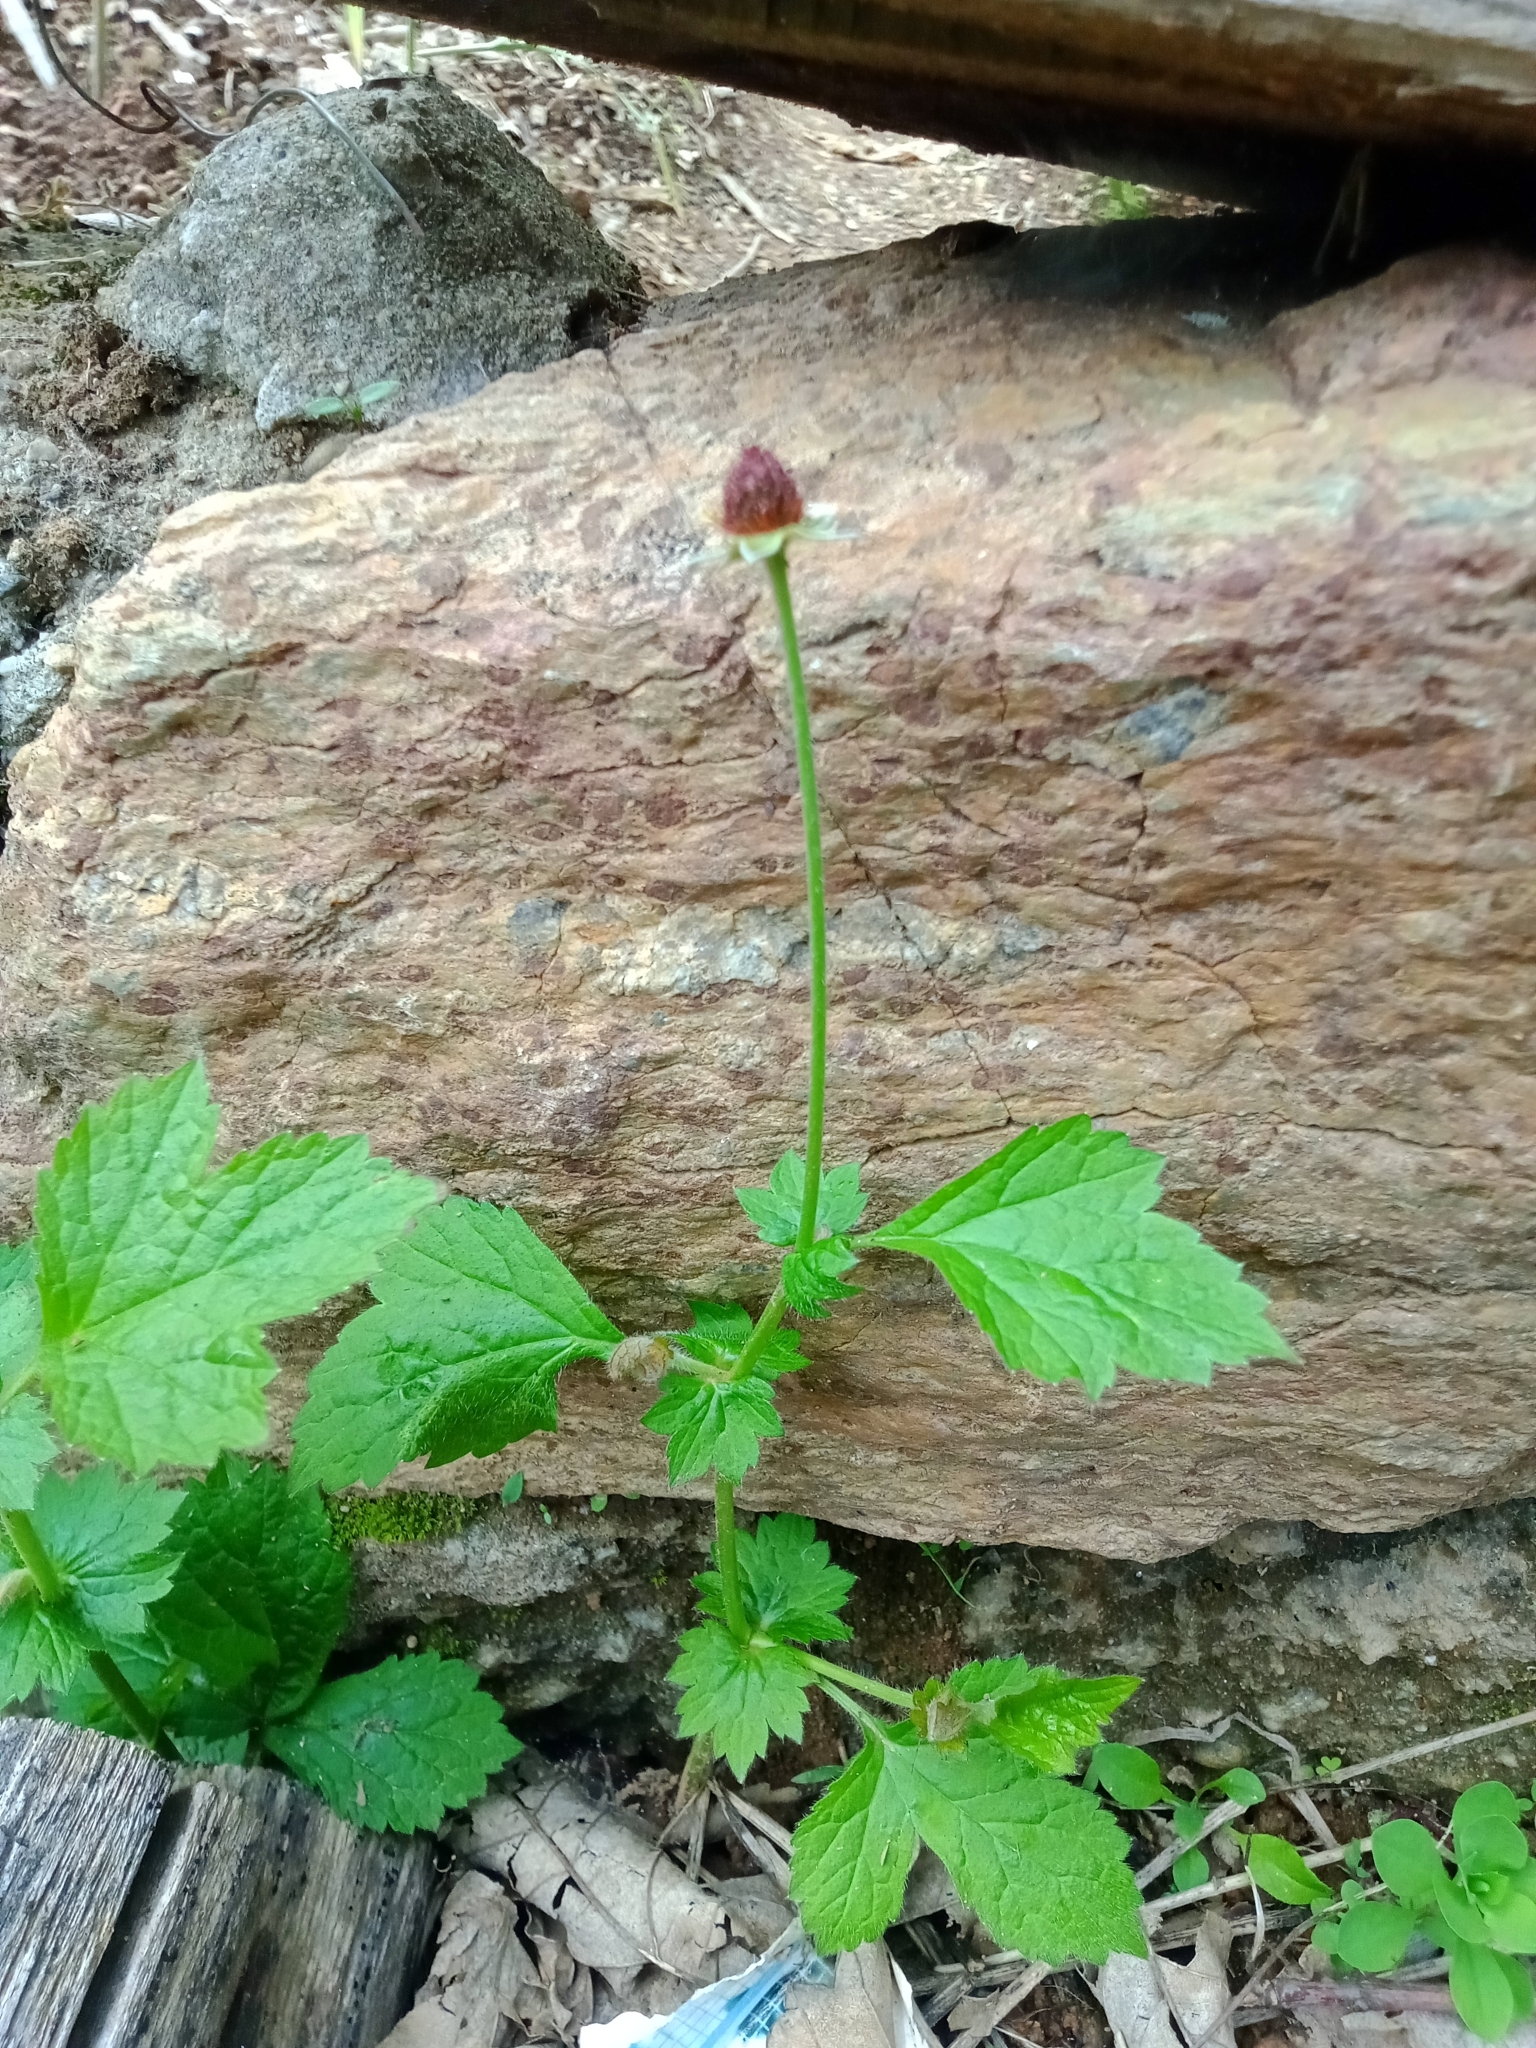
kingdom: Plantae
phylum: Tracheophyta
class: Magnoliopsida
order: Rosales
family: Rosaceae
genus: Geum
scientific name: Geum urbanum
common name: Wood avens
